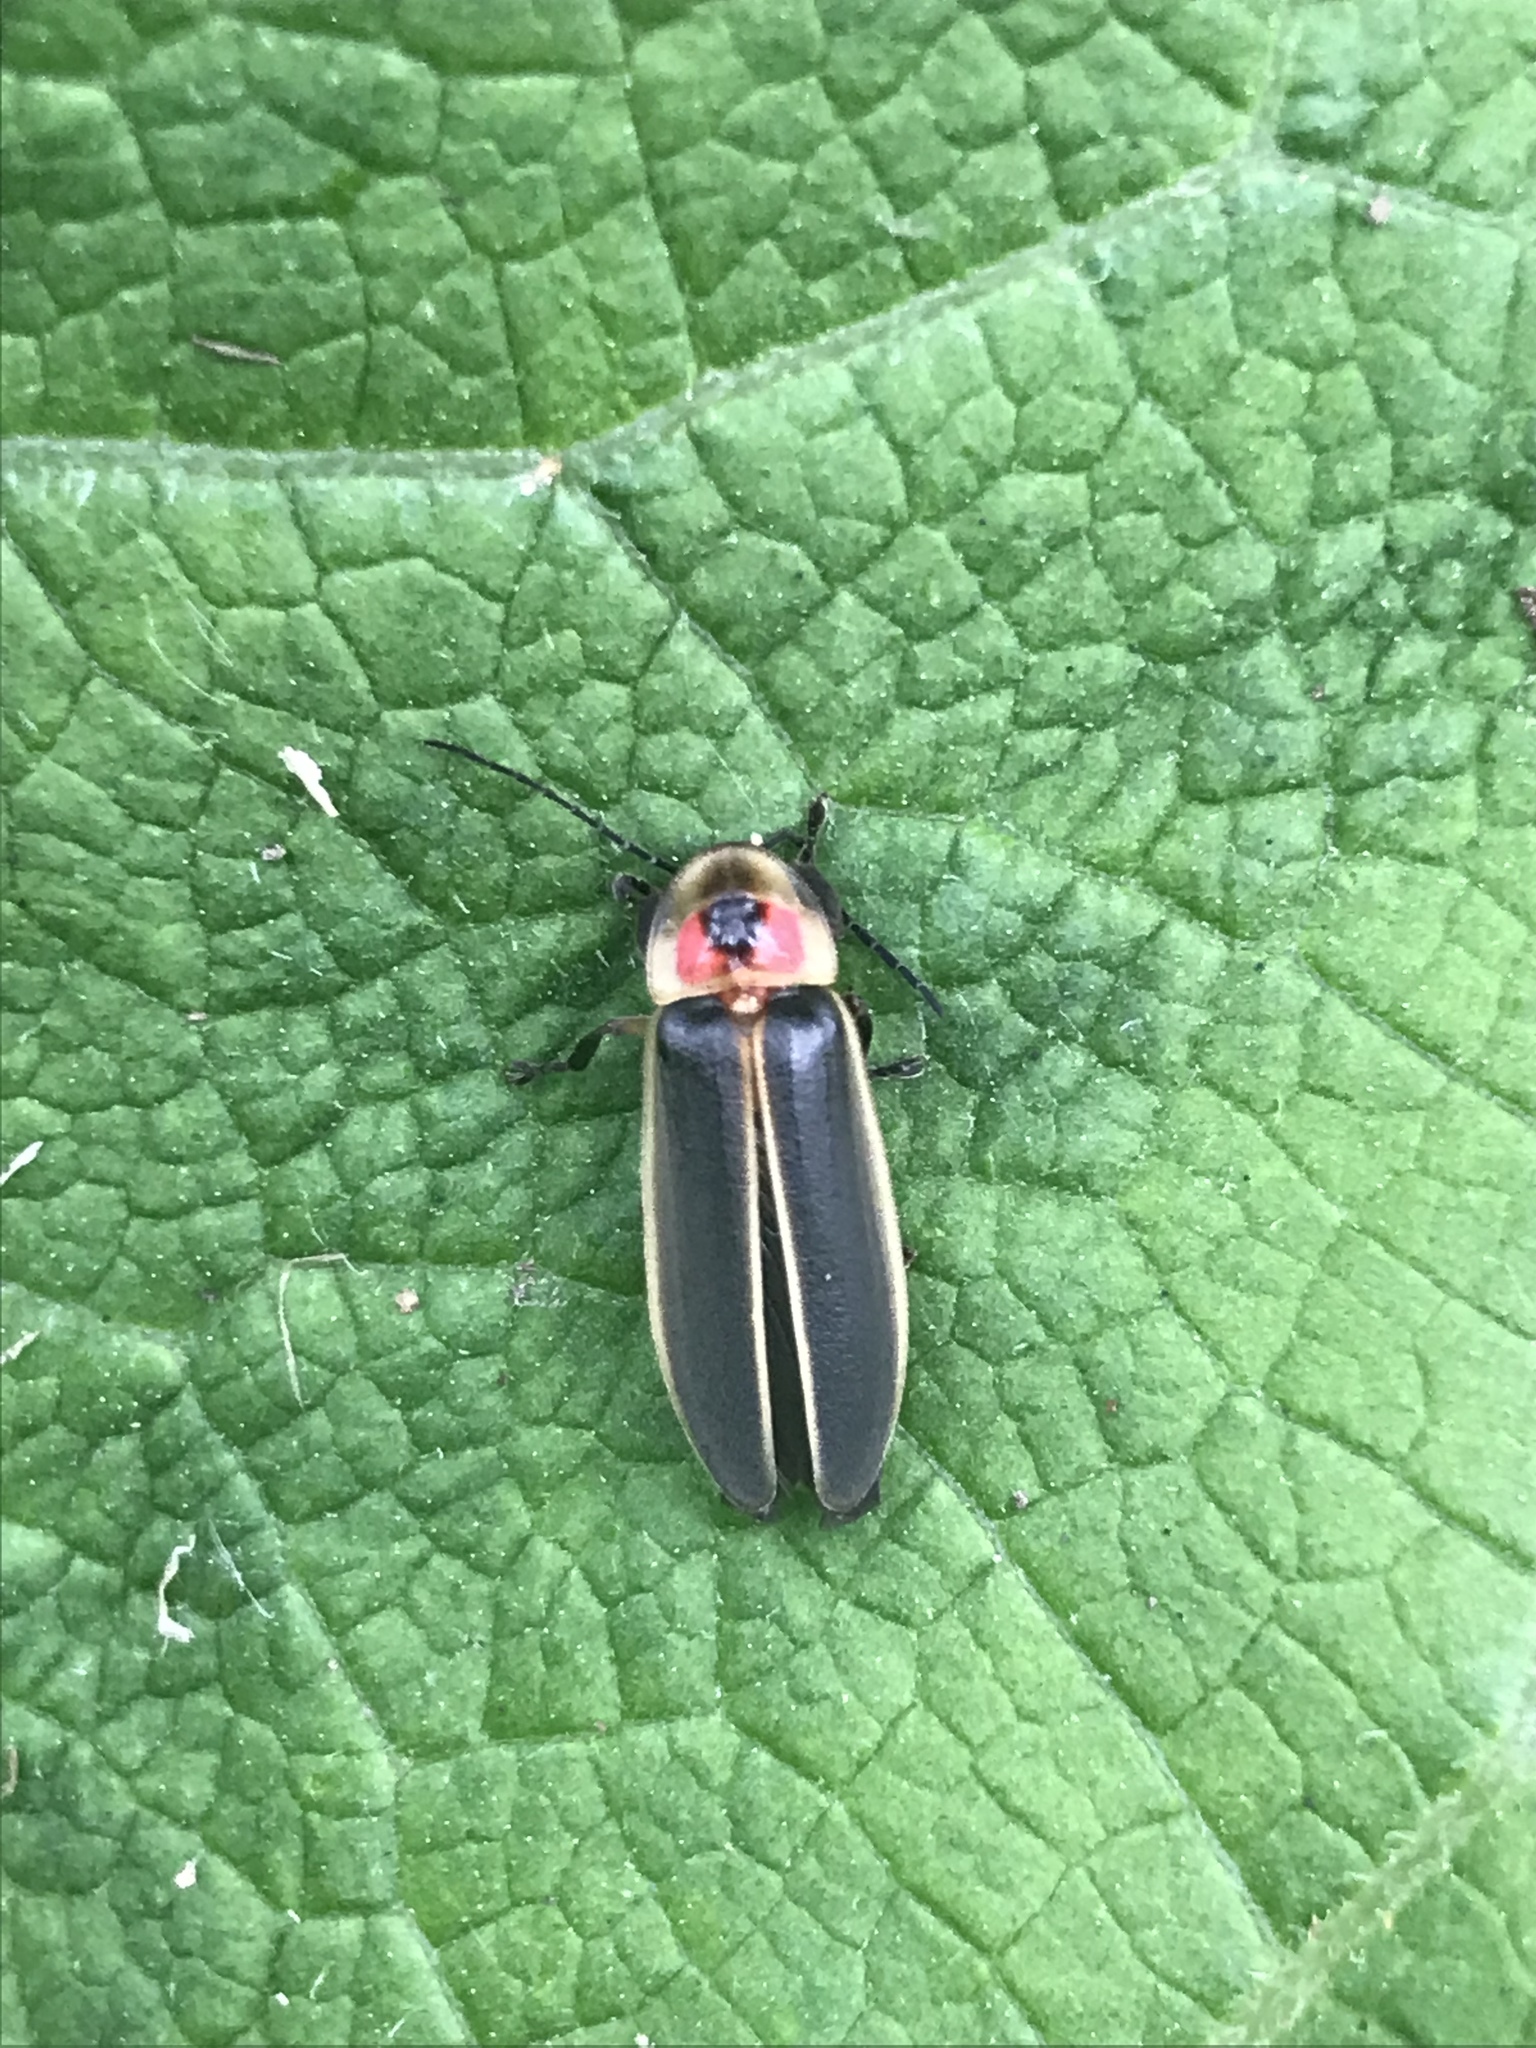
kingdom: Animalia
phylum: Arthropoda
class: Insecta
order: Coleoptera
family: Lampyridae
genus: Photinus
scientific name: Photinus pyralis
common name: Big dipper firefly
